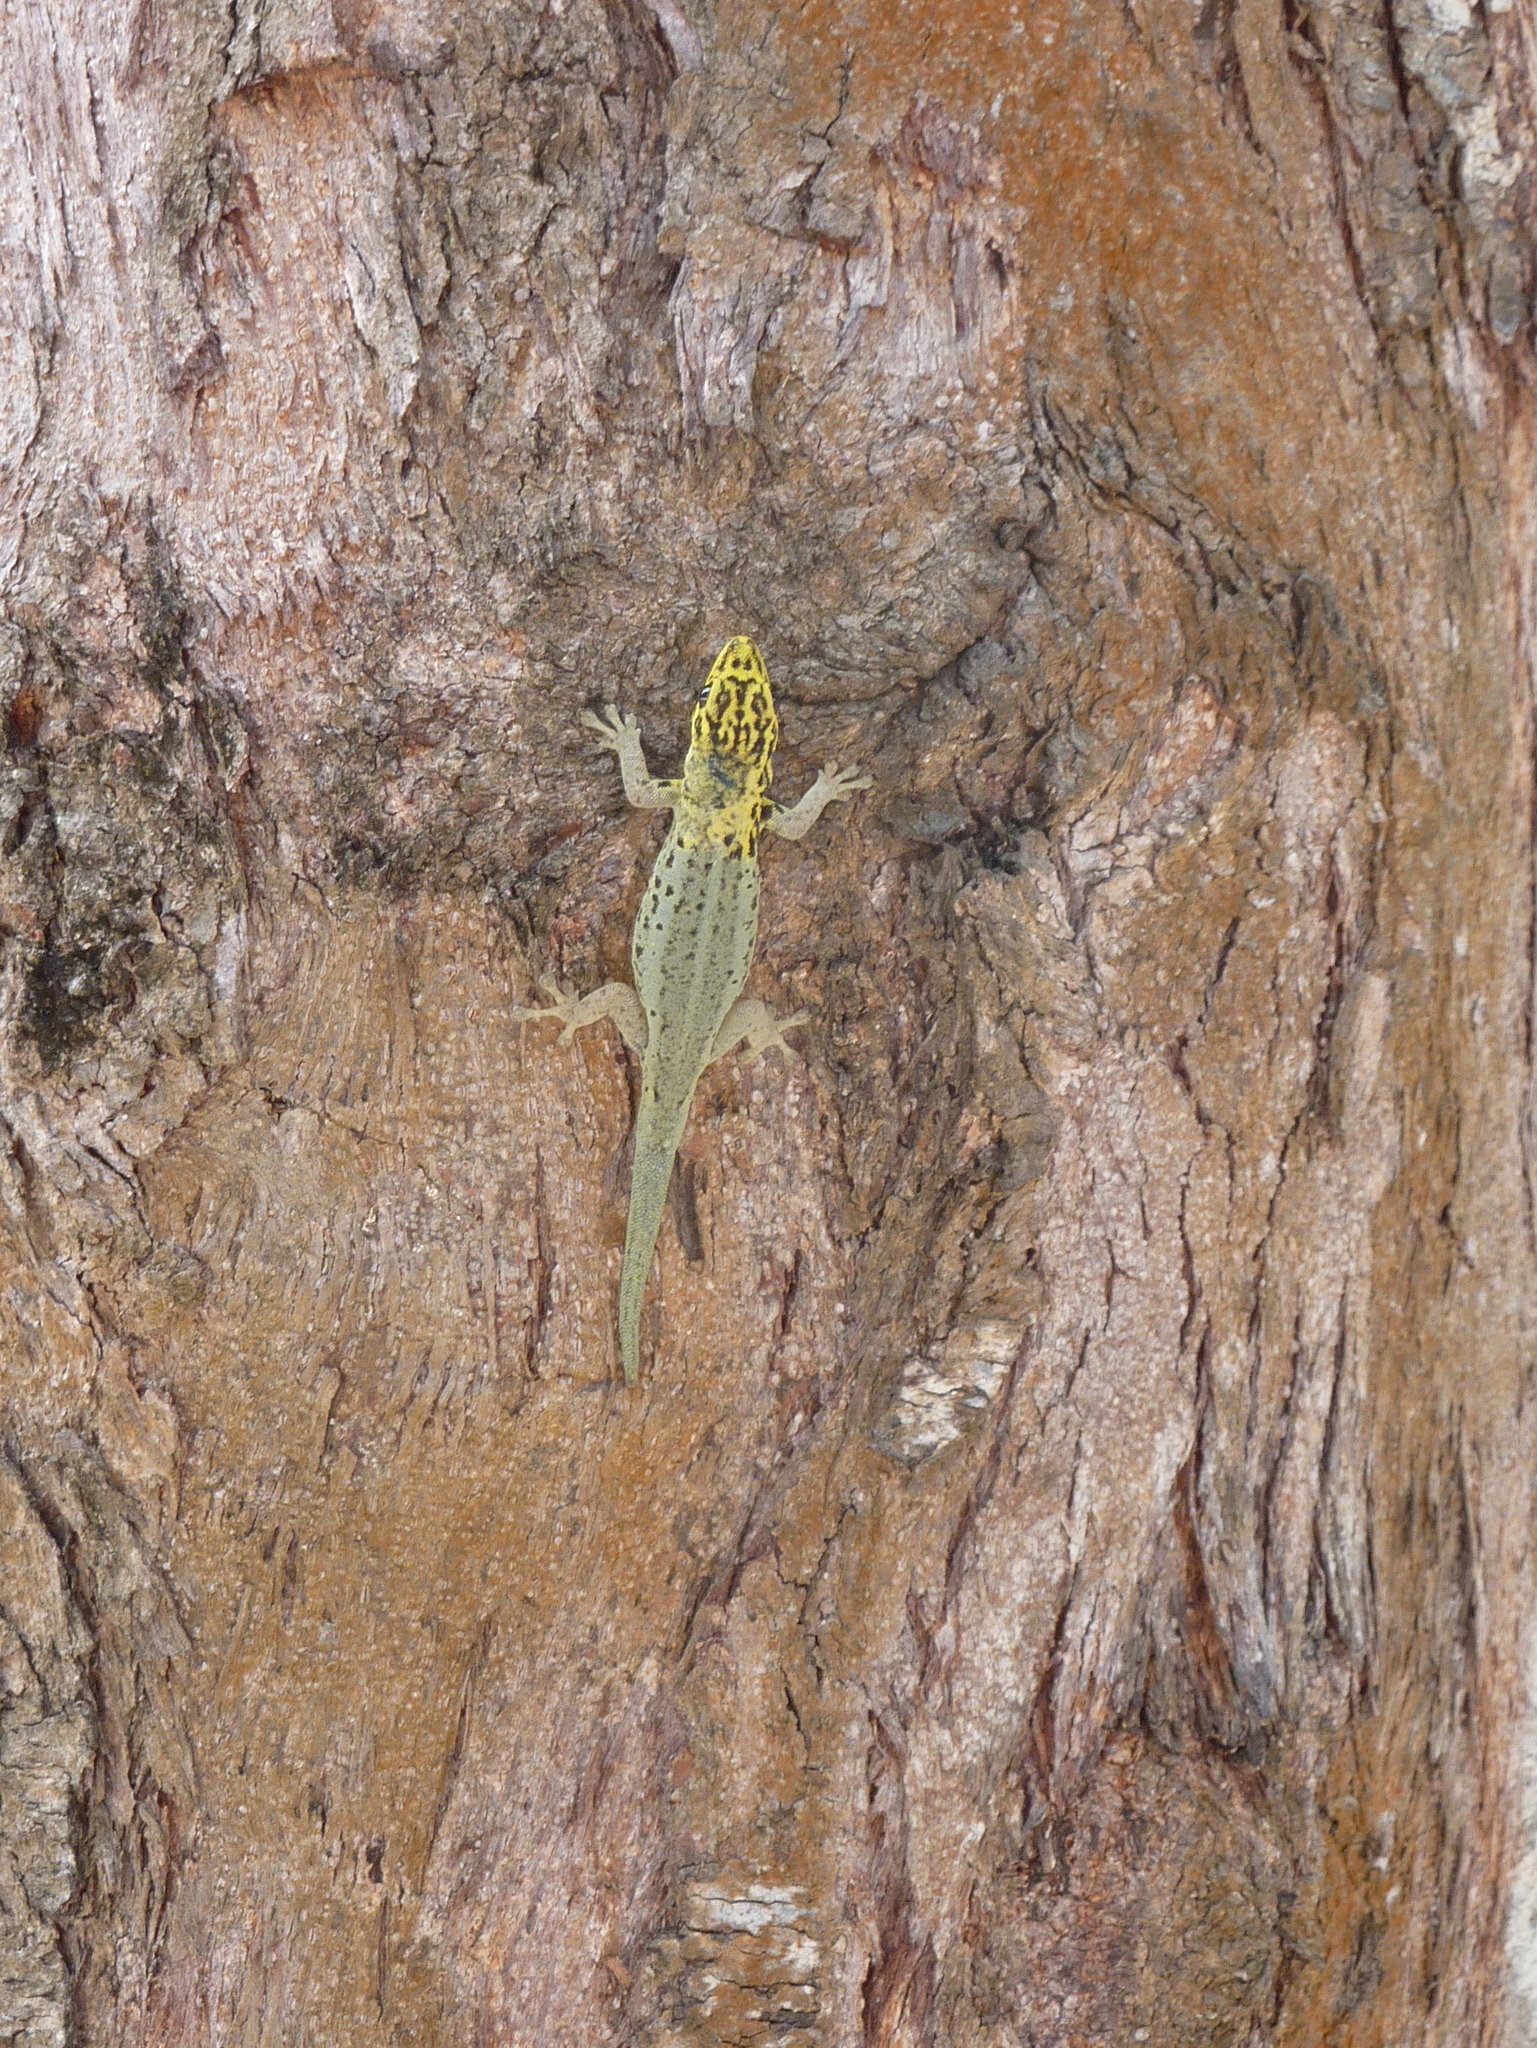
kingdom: Animalia
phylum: Chordata
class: Squamata
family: Gekkonidae
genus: Lygodactylus
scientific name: Lygodactylus picturatus
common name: Painted dwarf gecko
